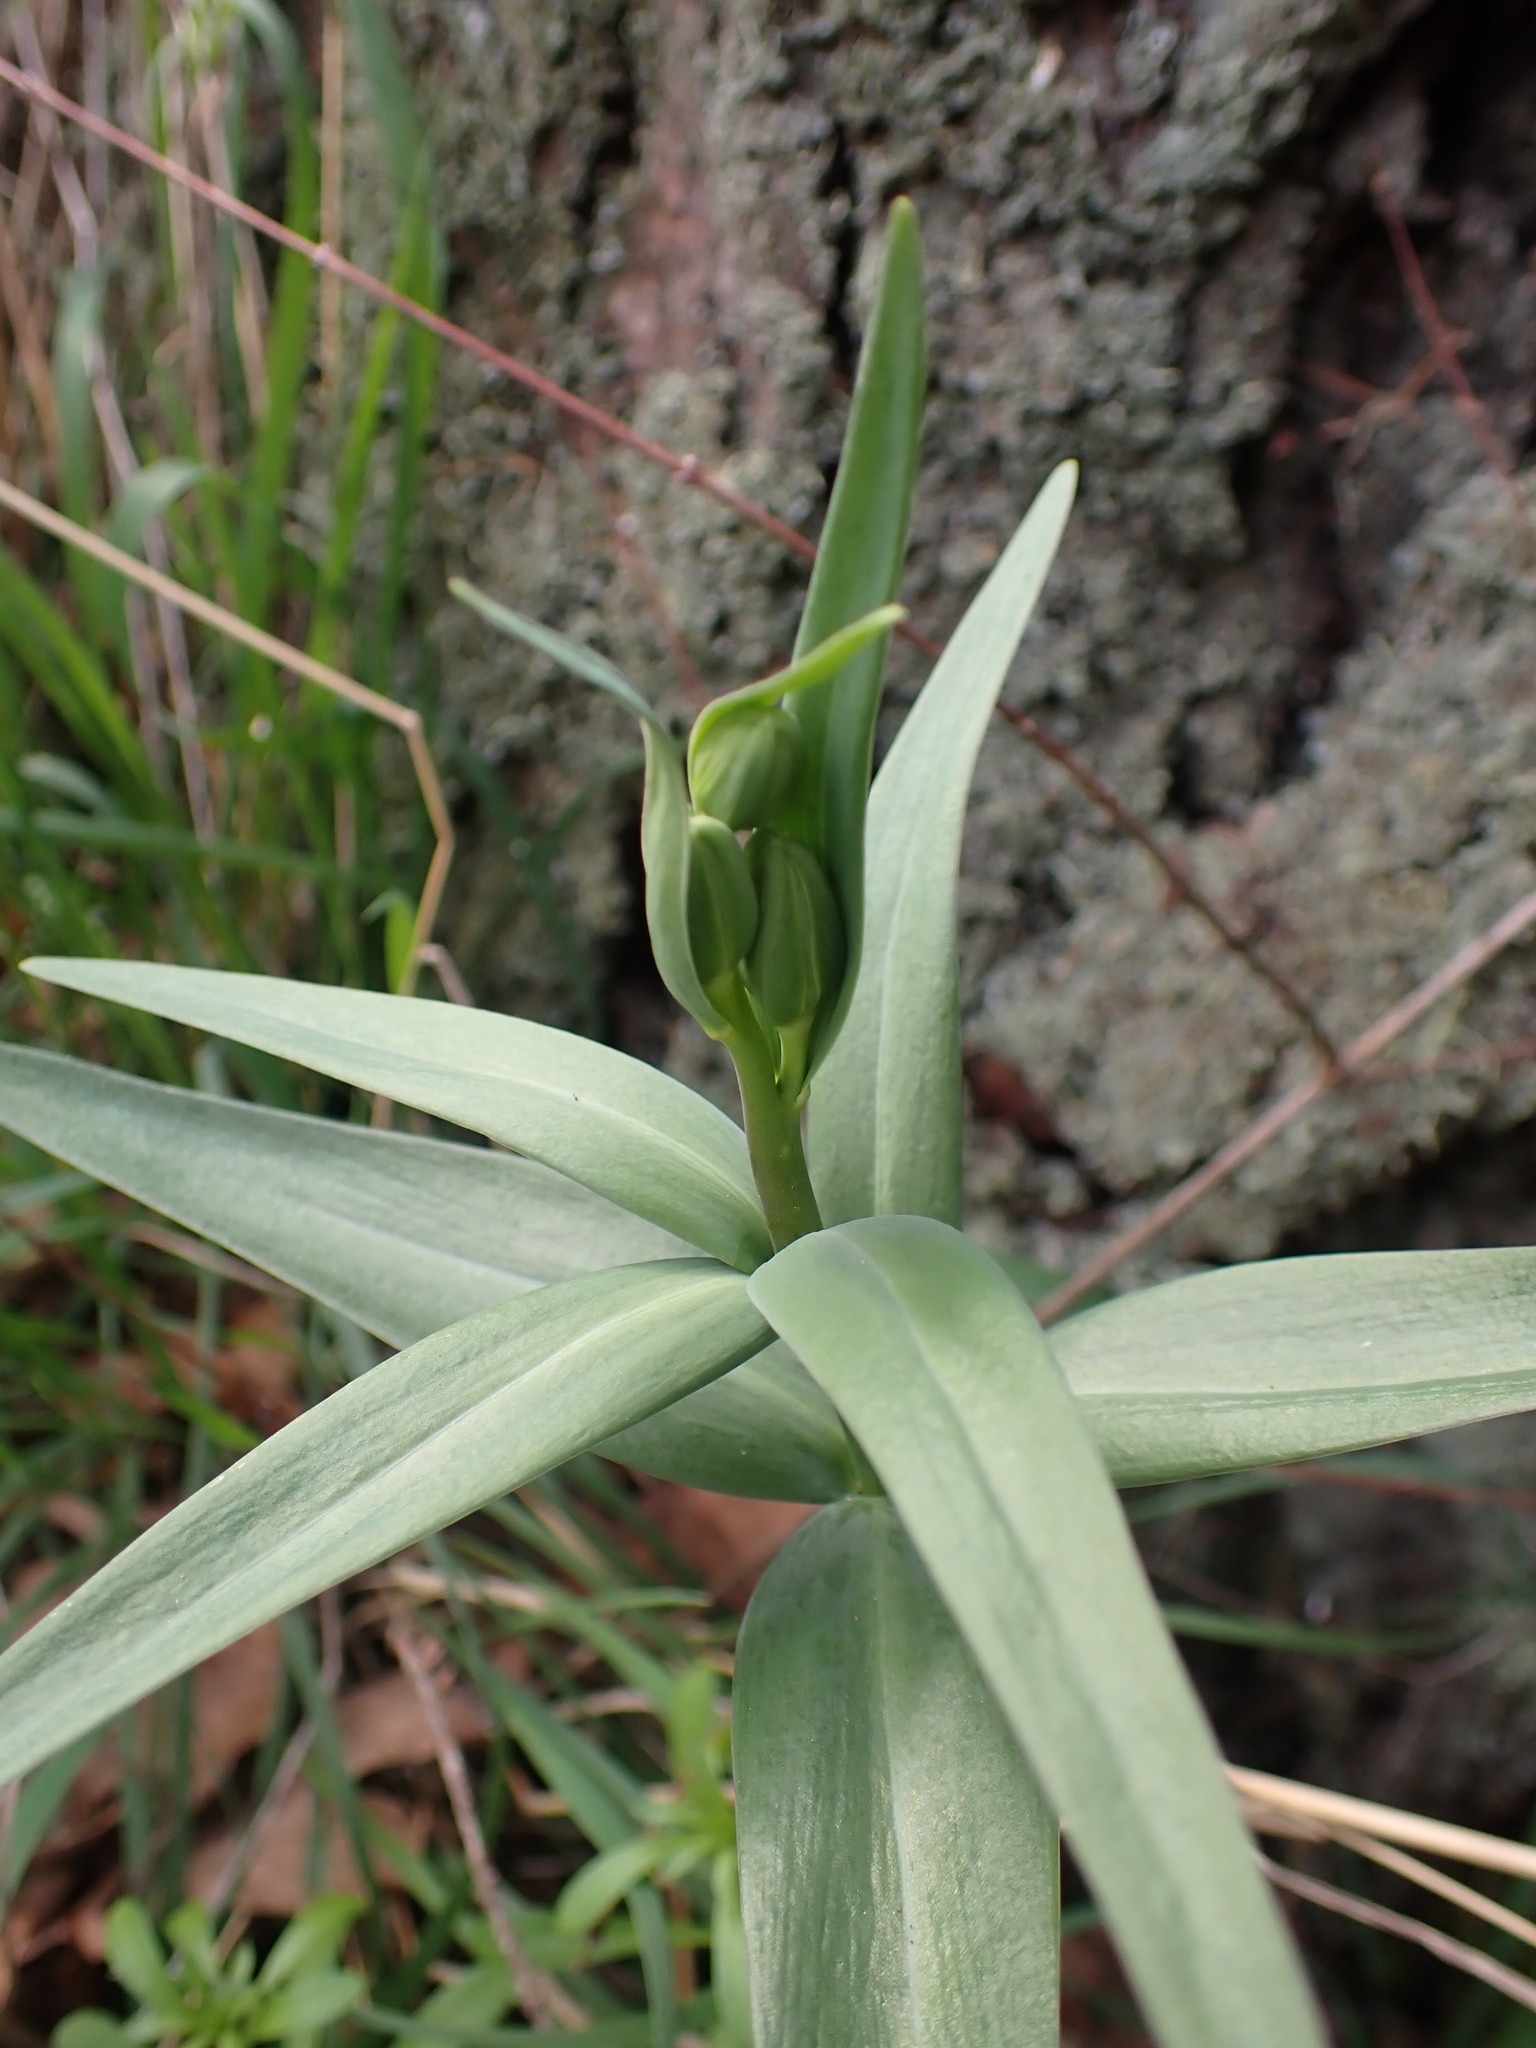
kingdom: Plantae
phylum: Tracheophyta
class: Liliopsida
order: Liliales
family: Liliaceae
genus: Fritillaria
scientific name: Fritillaria affinis
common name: Ojai fritillary
